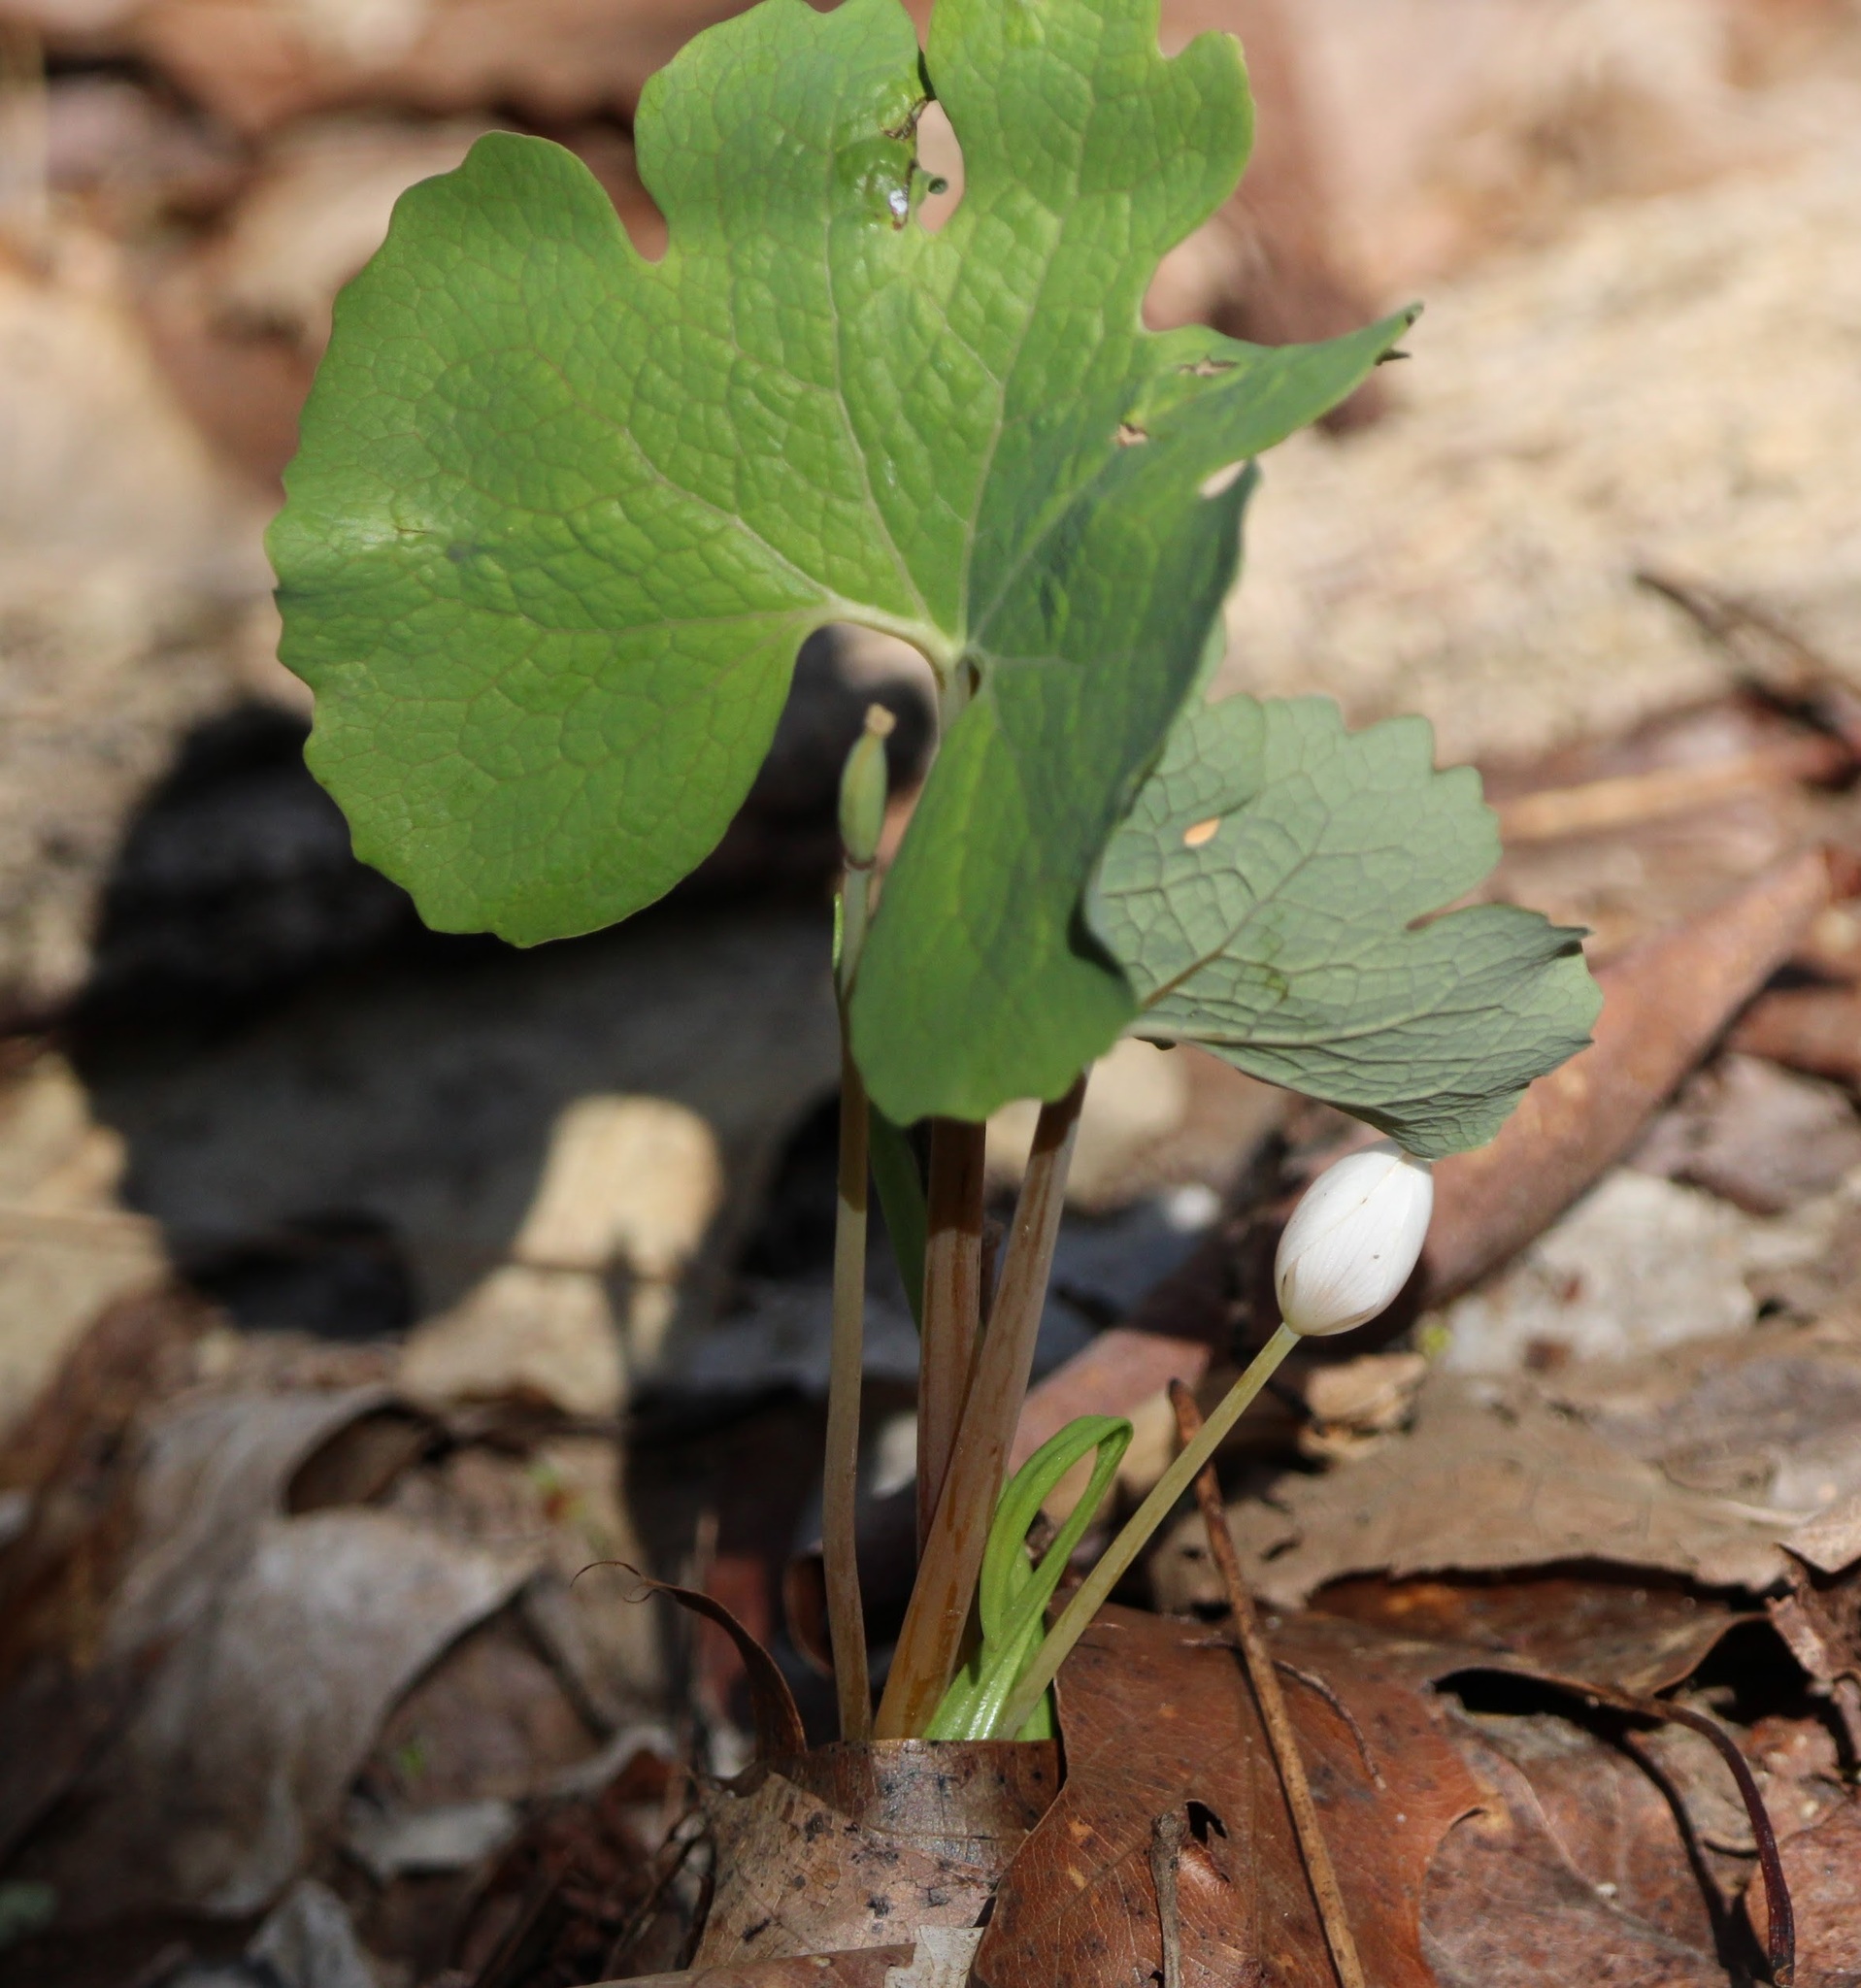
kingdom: Plantae
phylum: Tracheophyta
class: Magnoliopsida
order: Ranunculales
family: Papaveraceae
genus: Sanguinaria
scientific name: Sanguinaria canadensis
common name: Bloodroot
